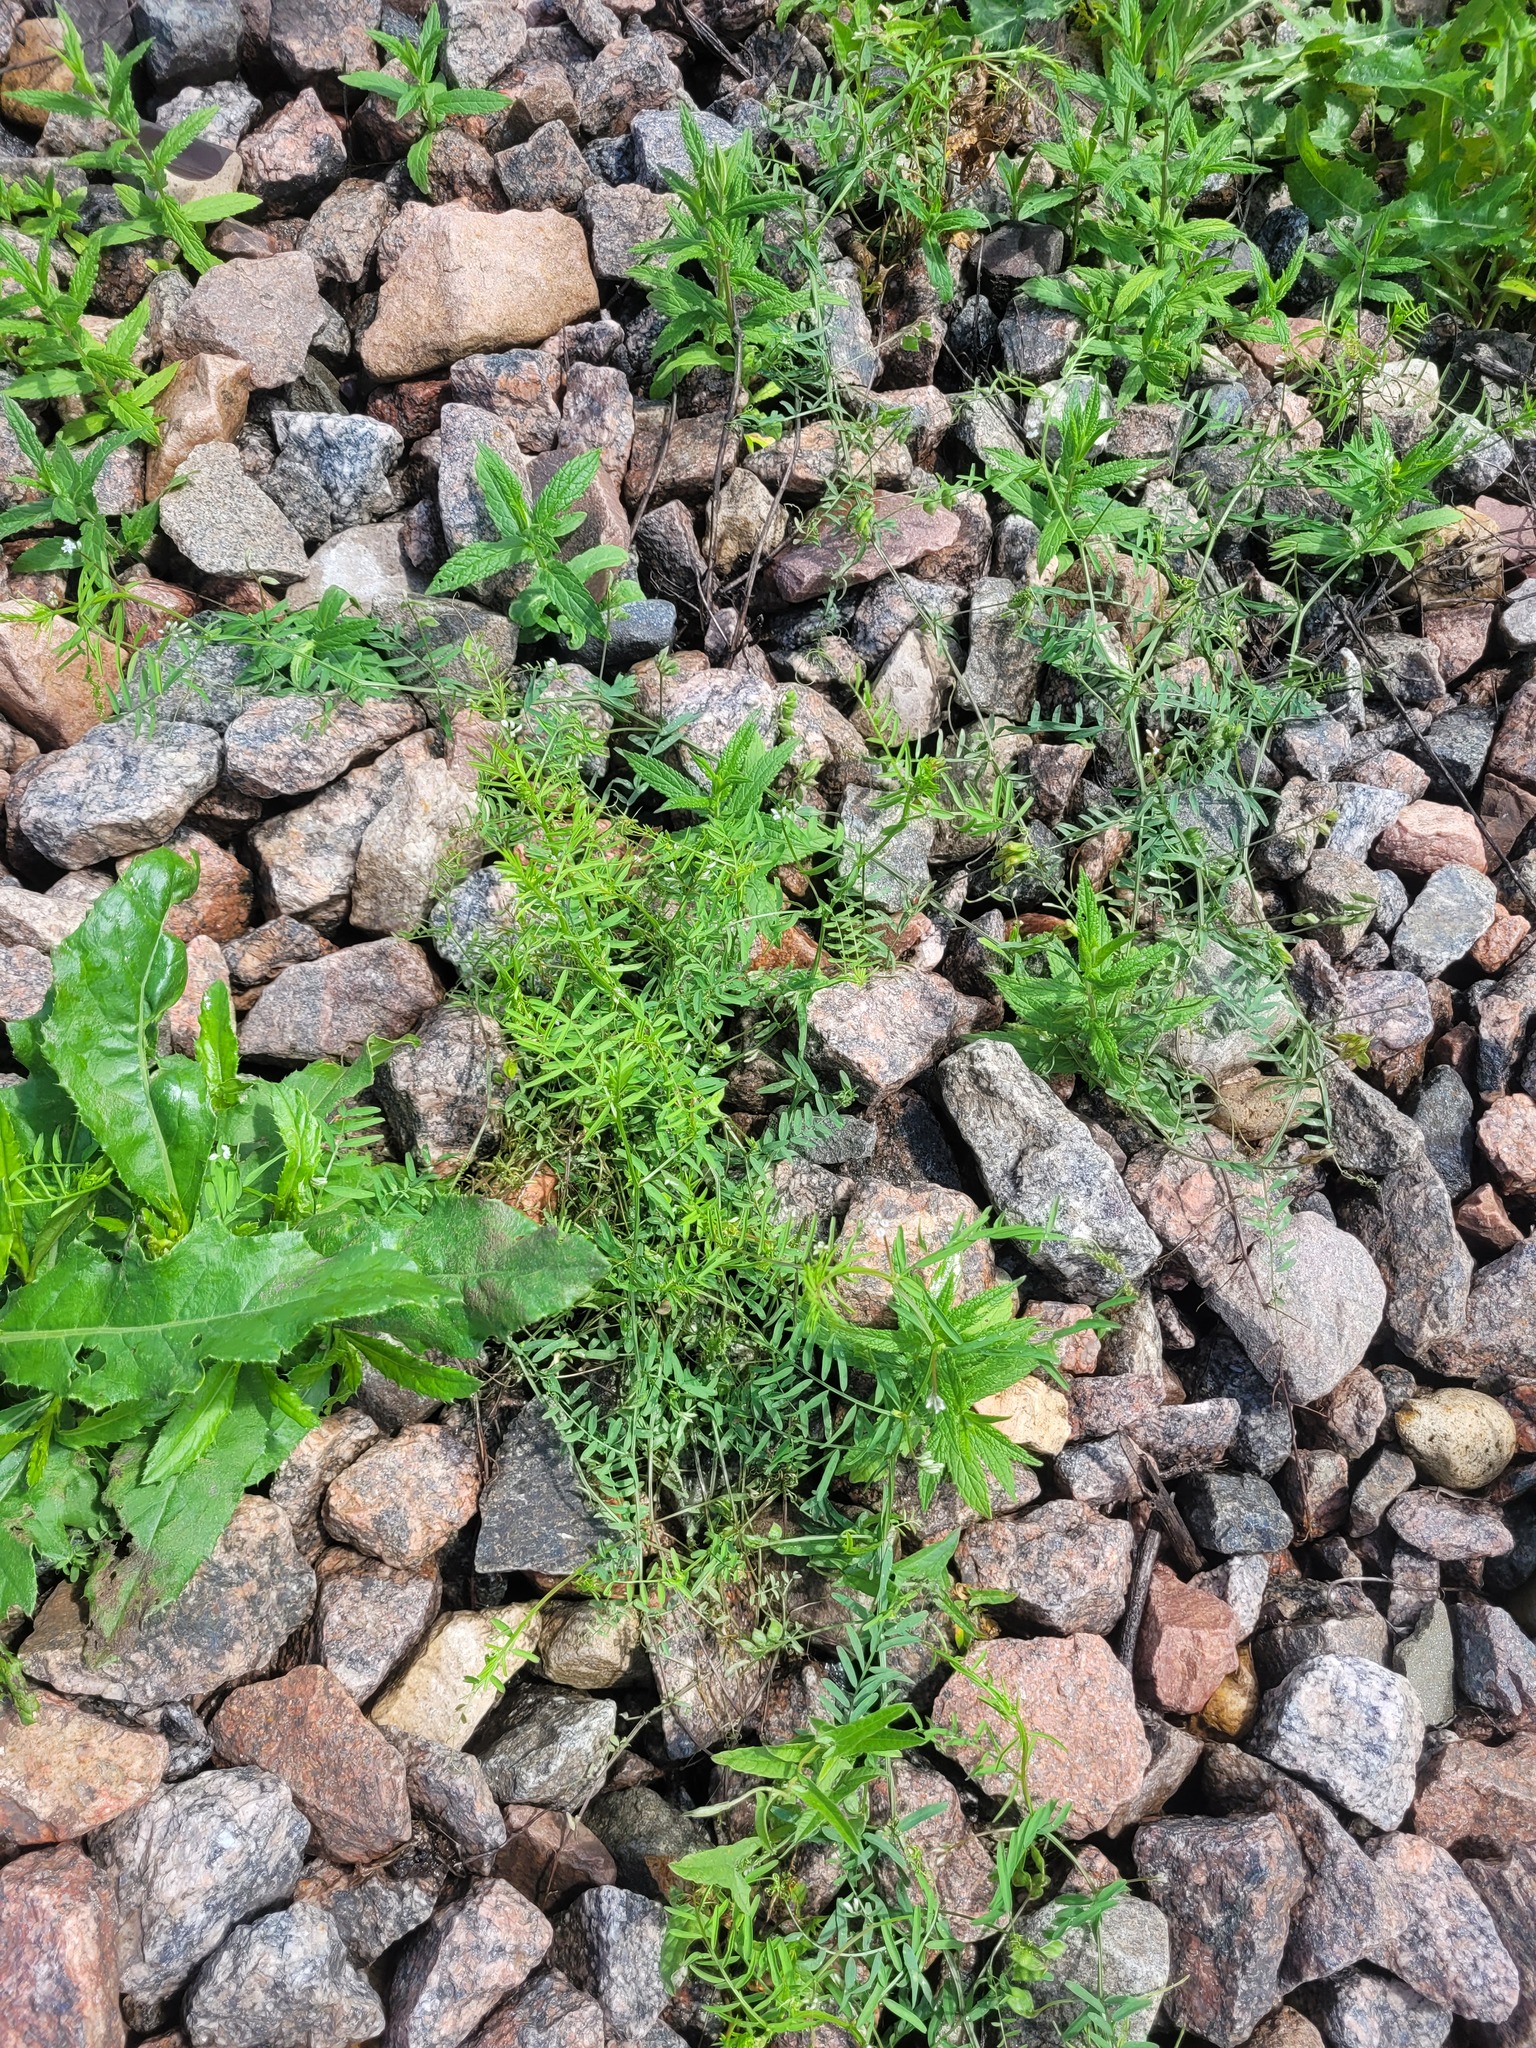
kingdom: Plantae
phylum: Tracheophyta
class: Magnoliopsida
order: Fabales
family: Fabaceae
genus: Vicia
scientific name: Vicia hirsuta
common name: Tiny vetch
